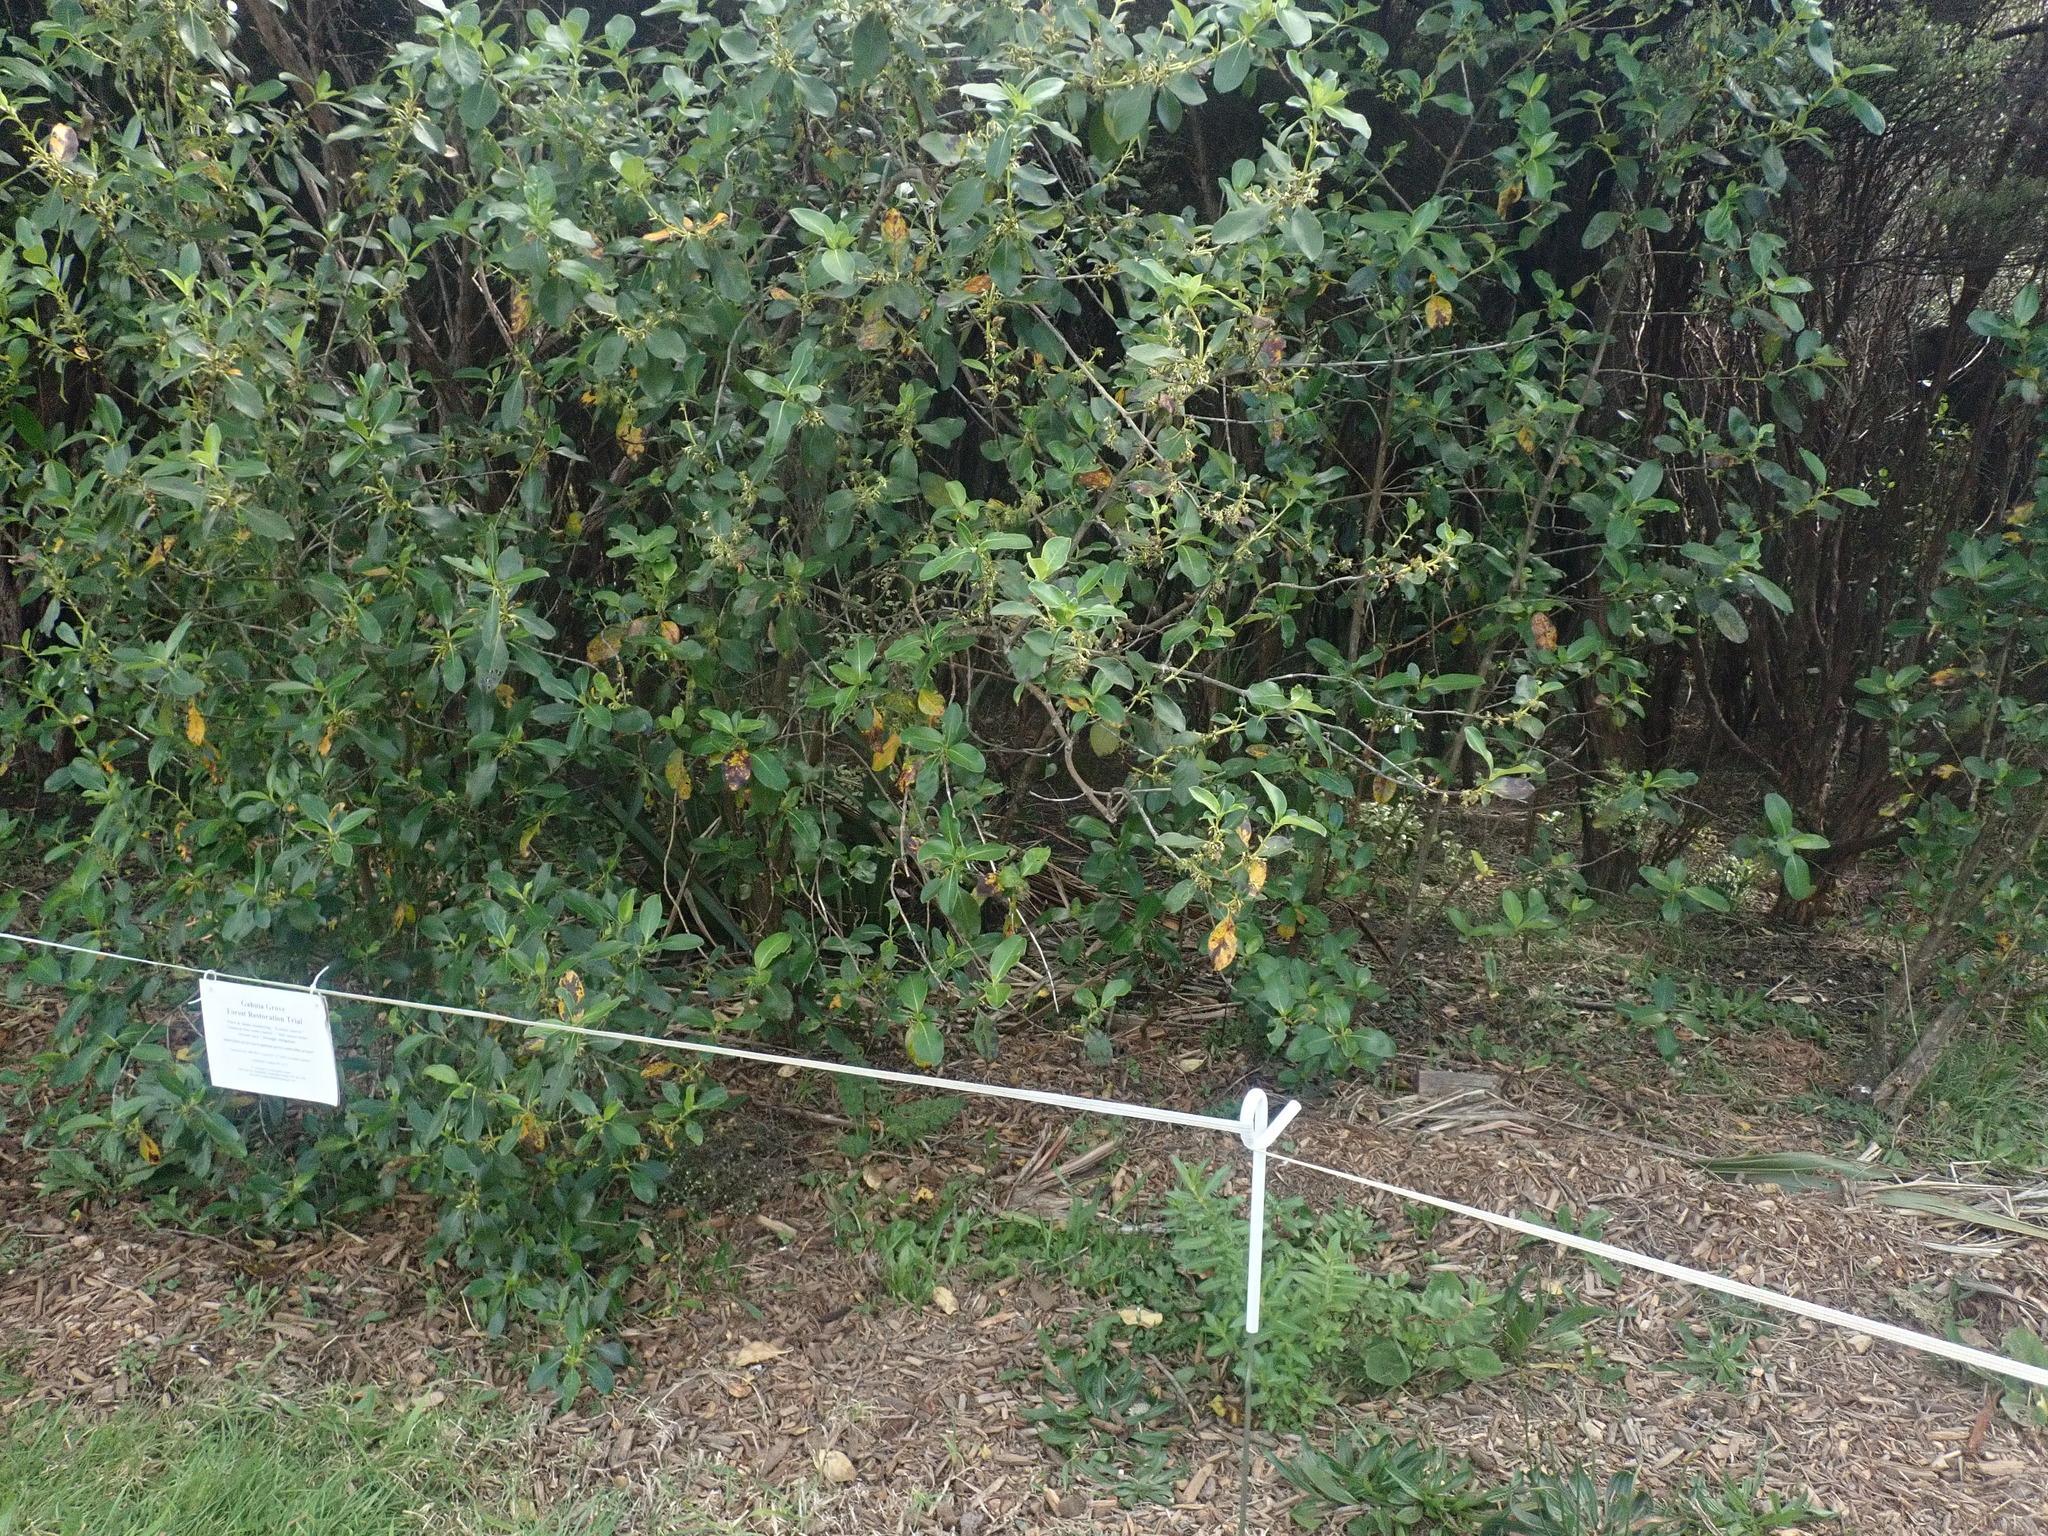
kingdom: Plantae
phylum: Tracheophyta
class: Magnoliopsida
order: Gentianales
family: Rubiaceae
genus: Coprosma
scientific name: Coprosma robusta
